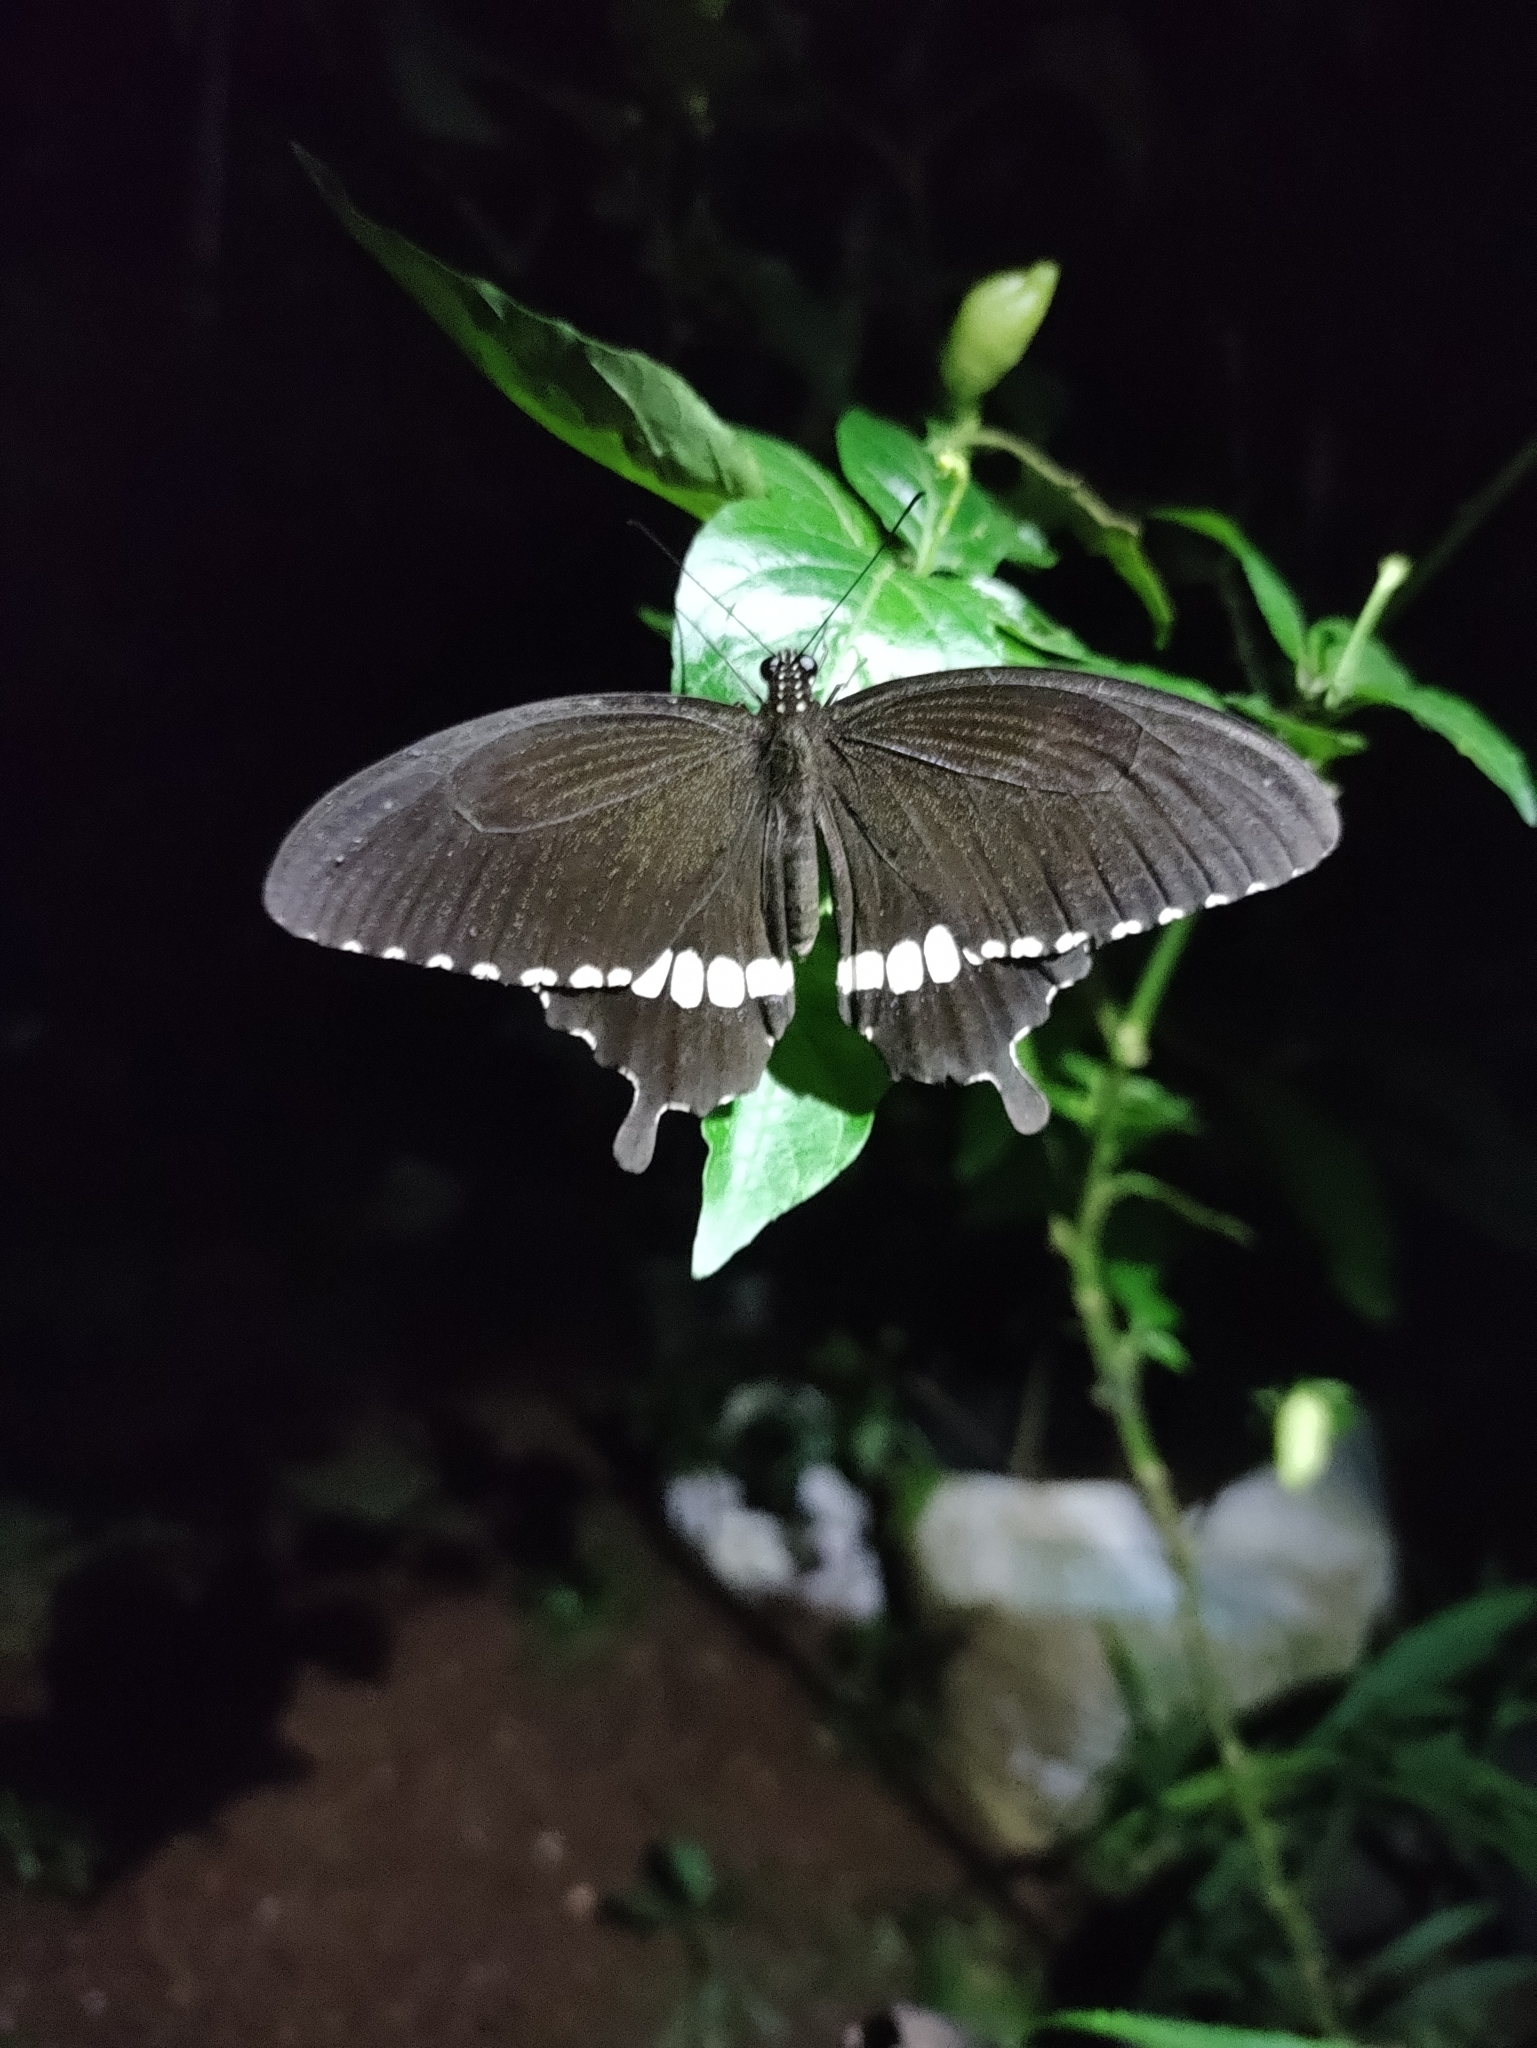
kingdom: Animalia
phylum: Arthropoda
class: Insecta
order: Lepidoptera
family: Papilionidae
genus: Papilio
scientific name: Papilio polytes
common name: Common mormon
